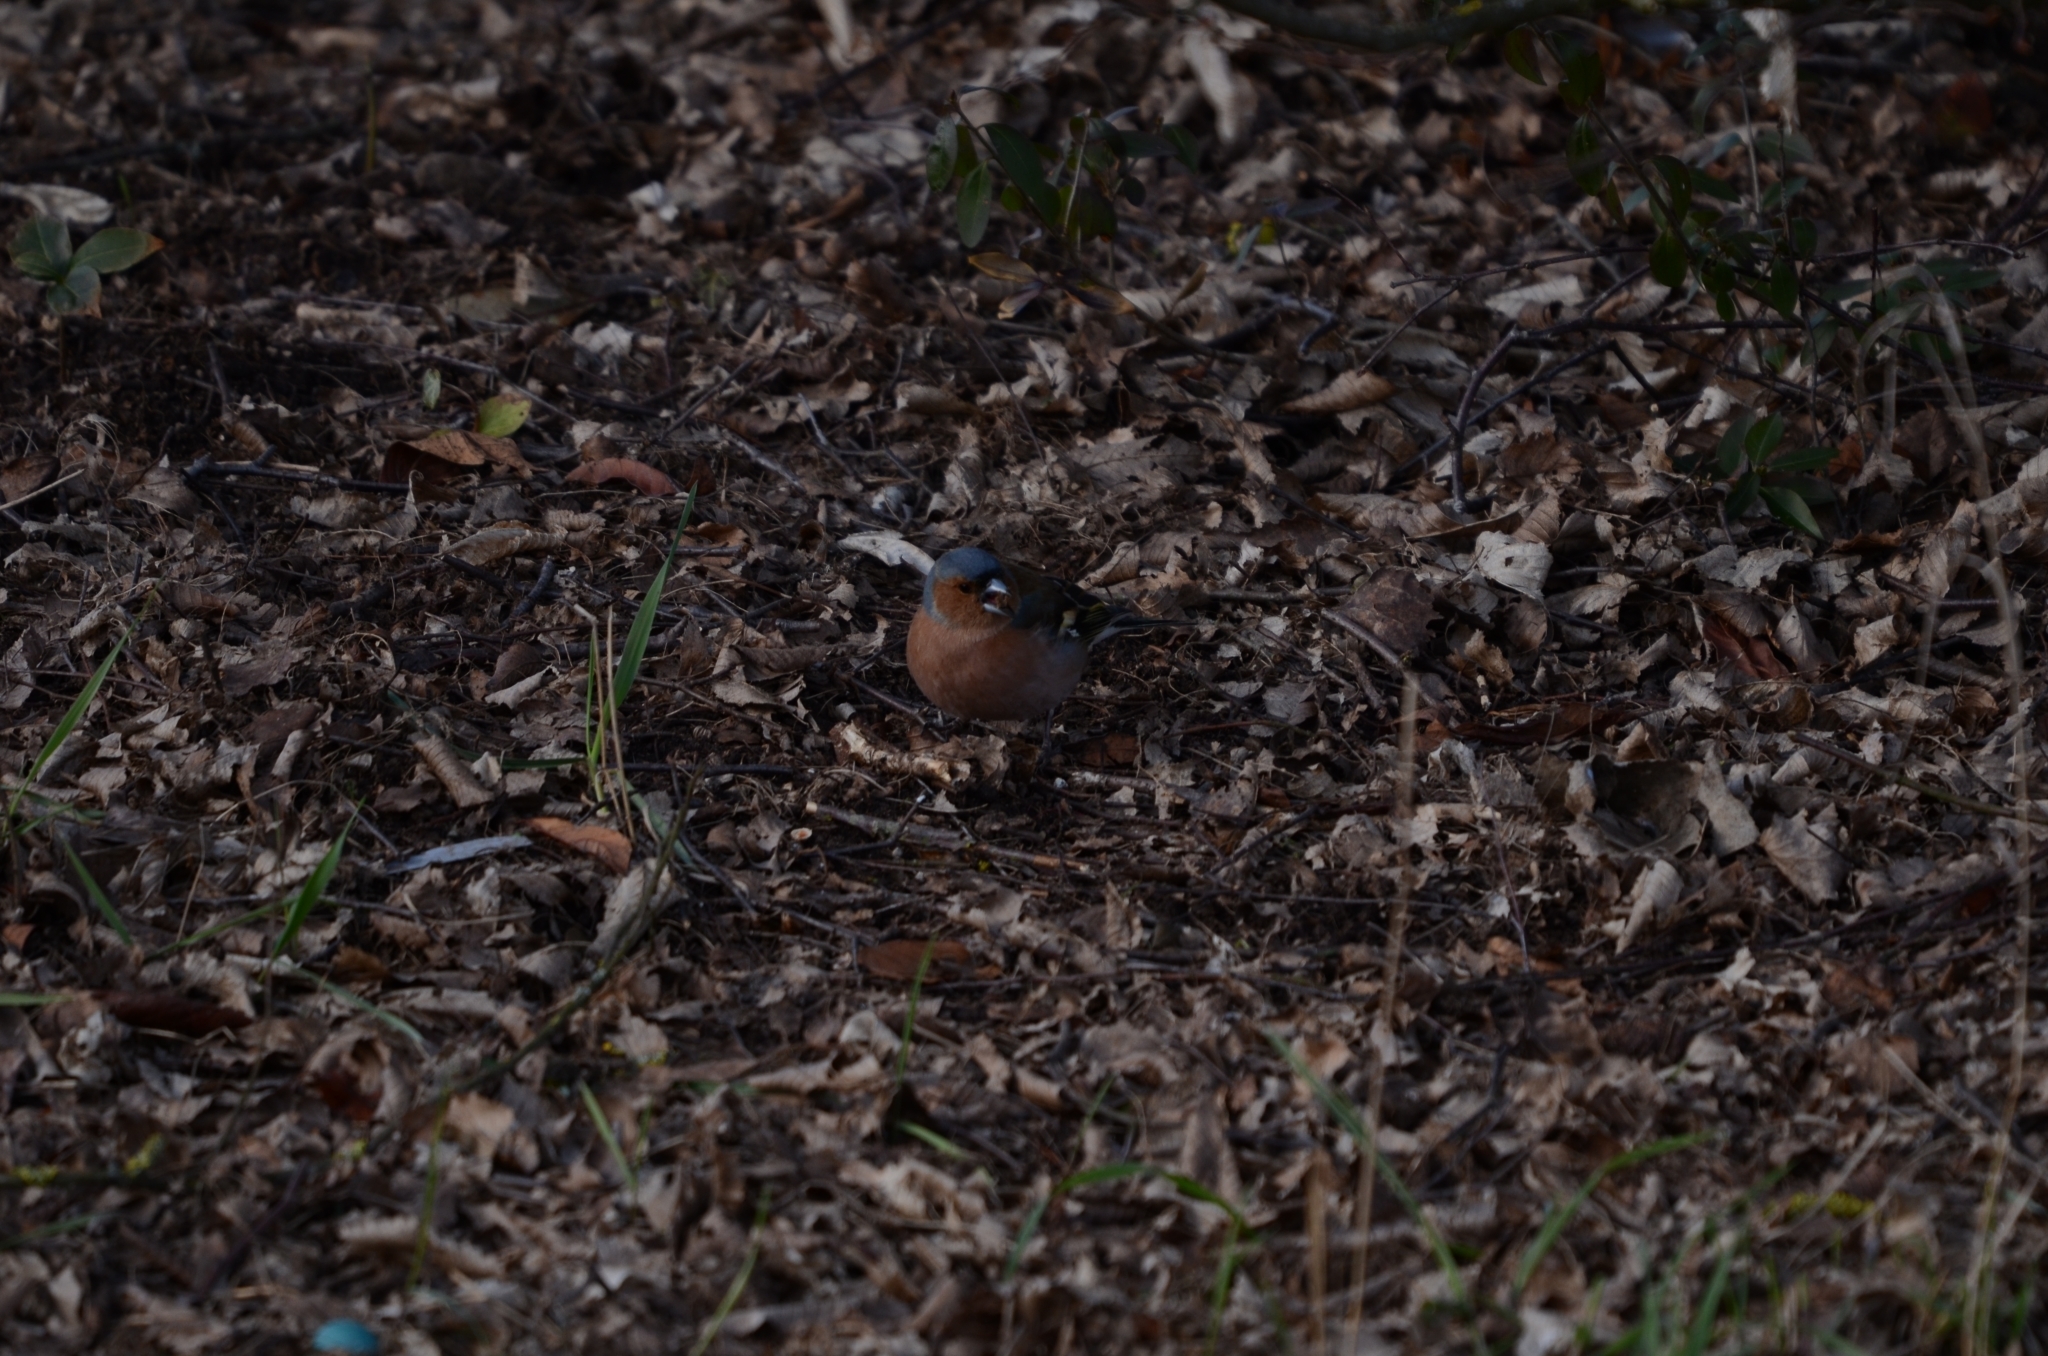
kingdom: Animalia
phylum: Chordata
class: Aves
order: Passeriformes
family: Fringillidae
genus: Fringilla
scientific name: Fringilla coelebs
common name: Common chaffinch
